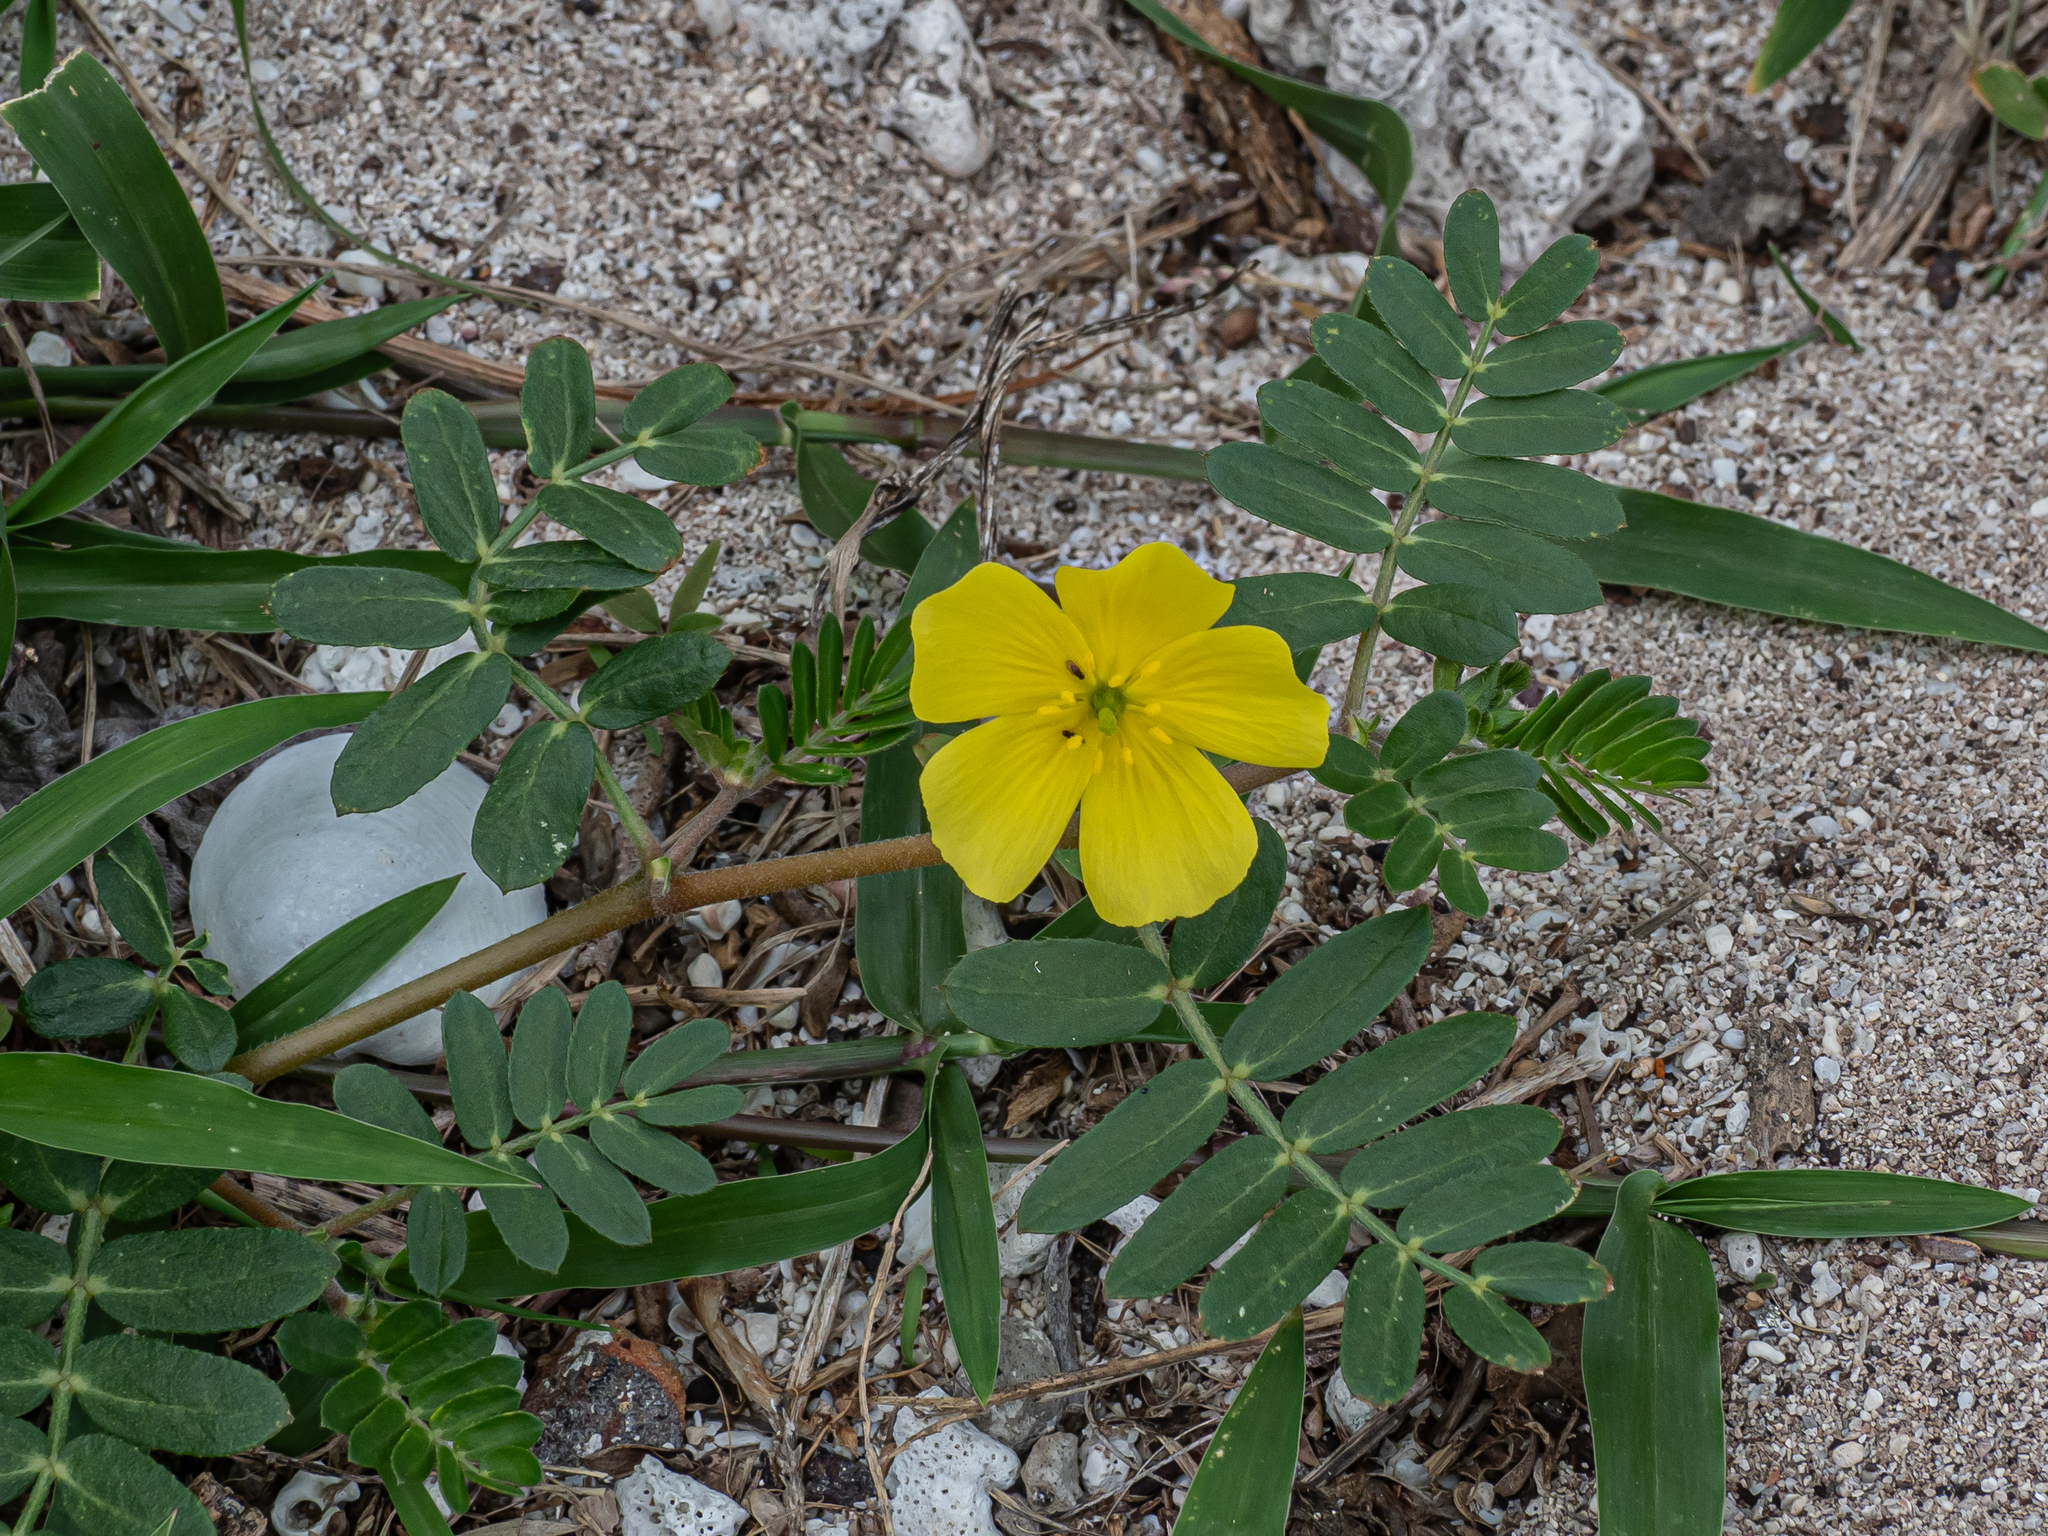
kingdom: Plantae
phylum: Tracheophyta
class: Magnoliopsida
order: Zygophyllales
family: Zygophyllaceae
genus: Tribulus
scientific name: Tribulus cistoides
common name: Jamaican feverplant
